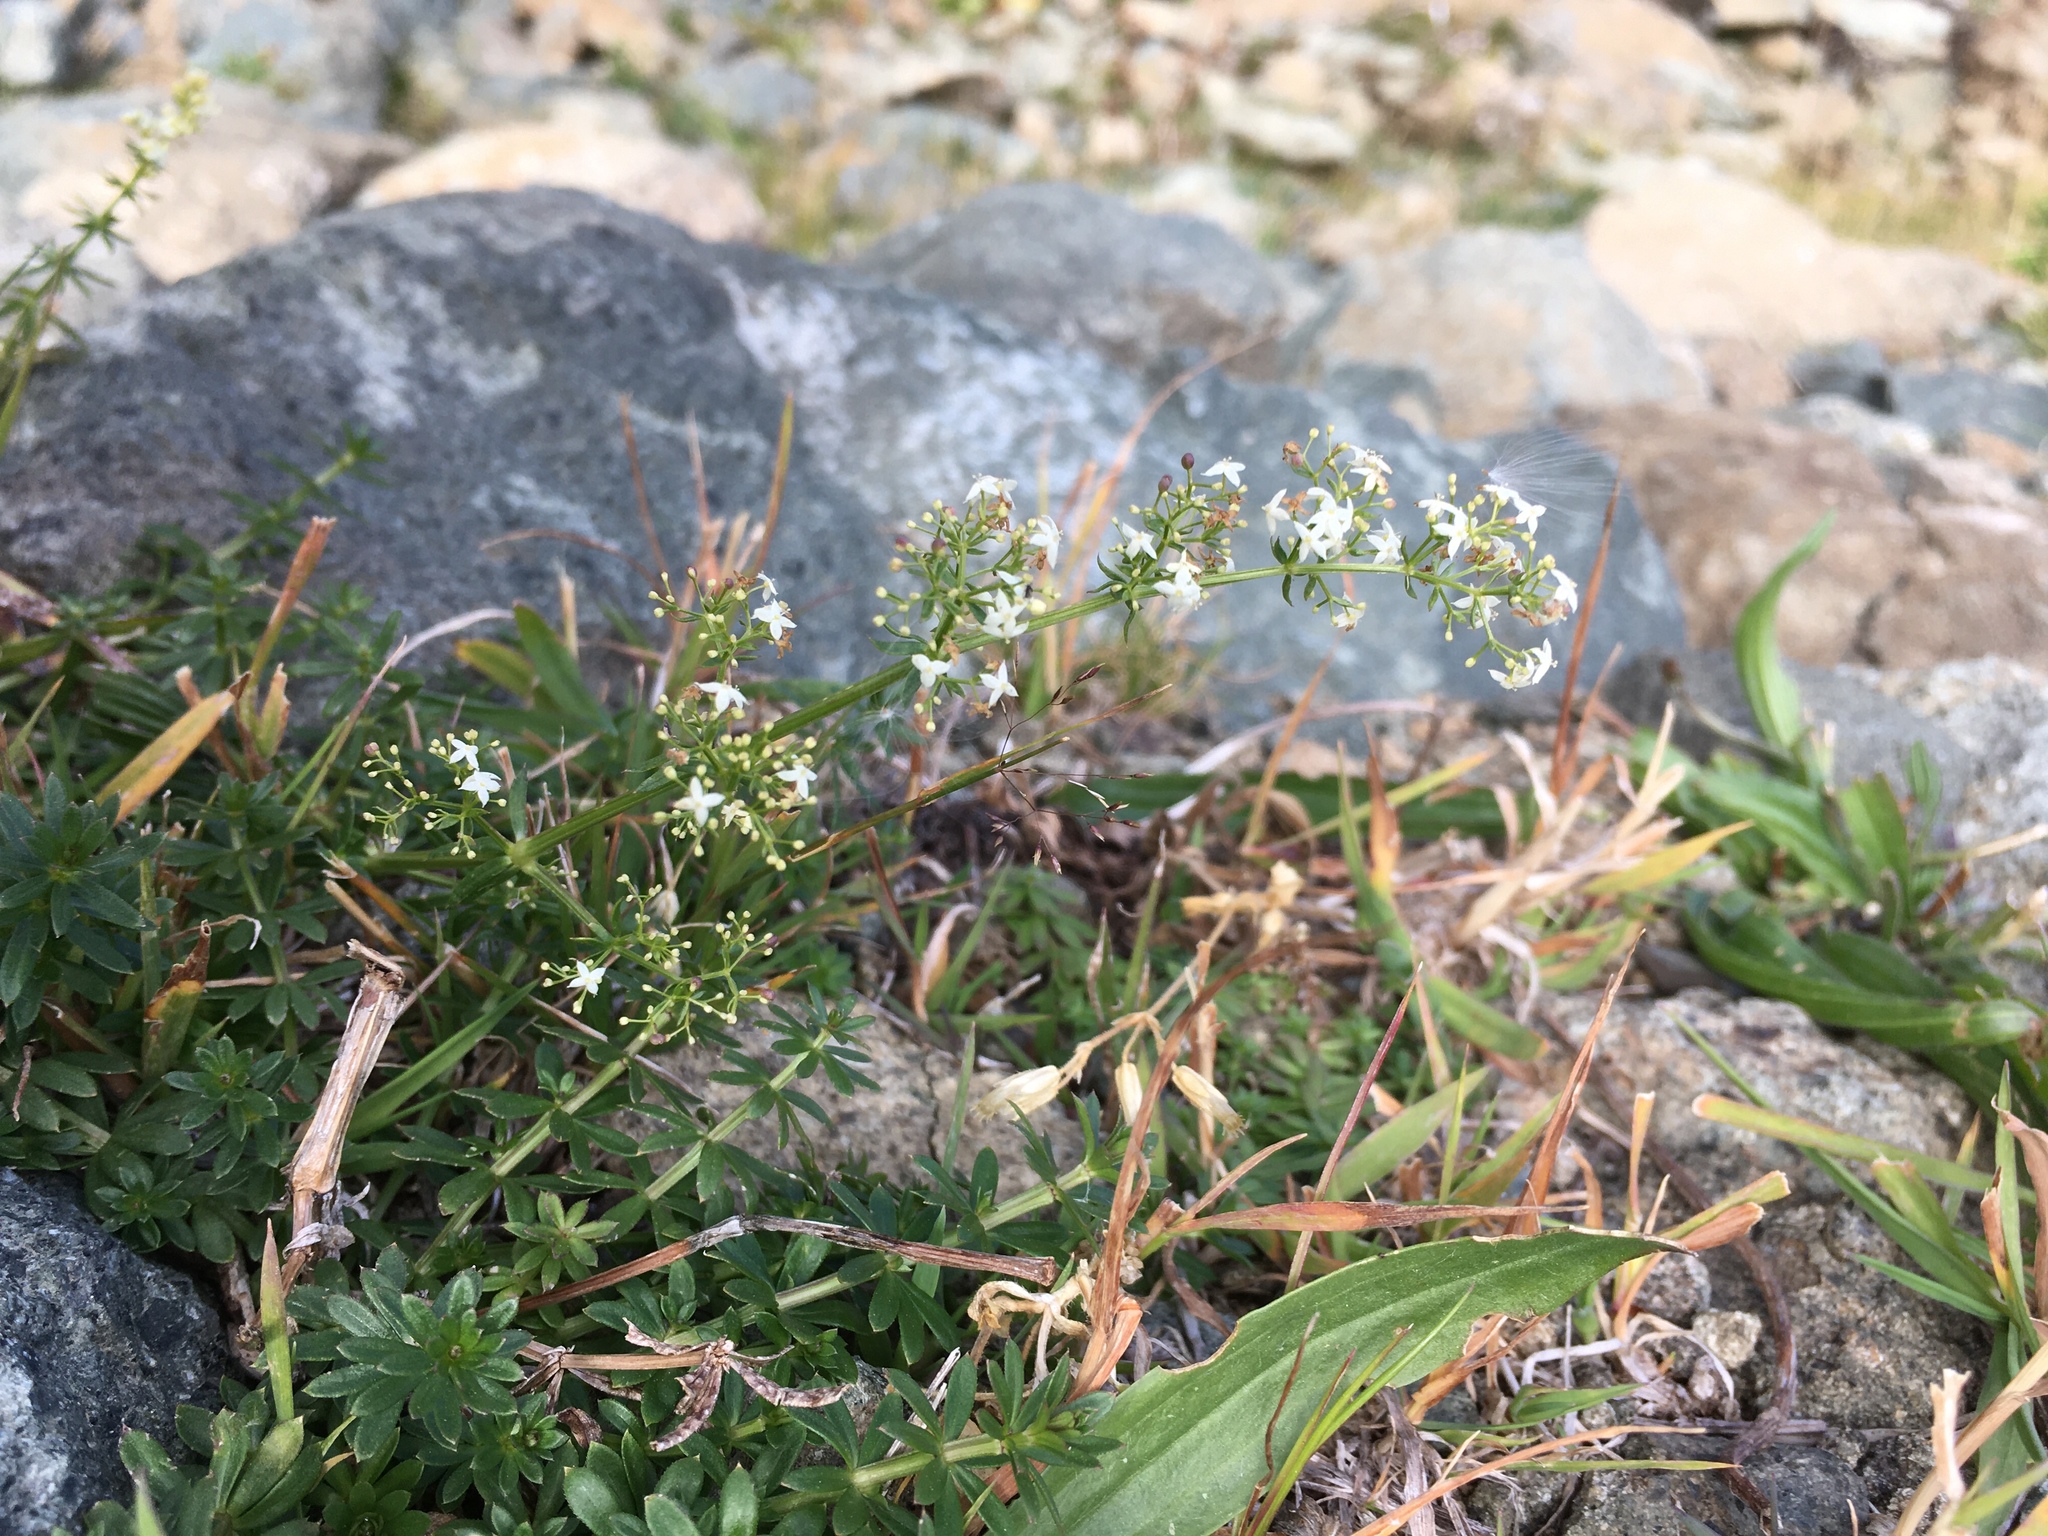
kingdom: Plantae
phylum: Tracheophyta
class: Magnoliopsida
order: Gentianales
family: Rubiaceae
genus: Galium
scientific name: Galium mollugo
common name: Hedge bedstraw
